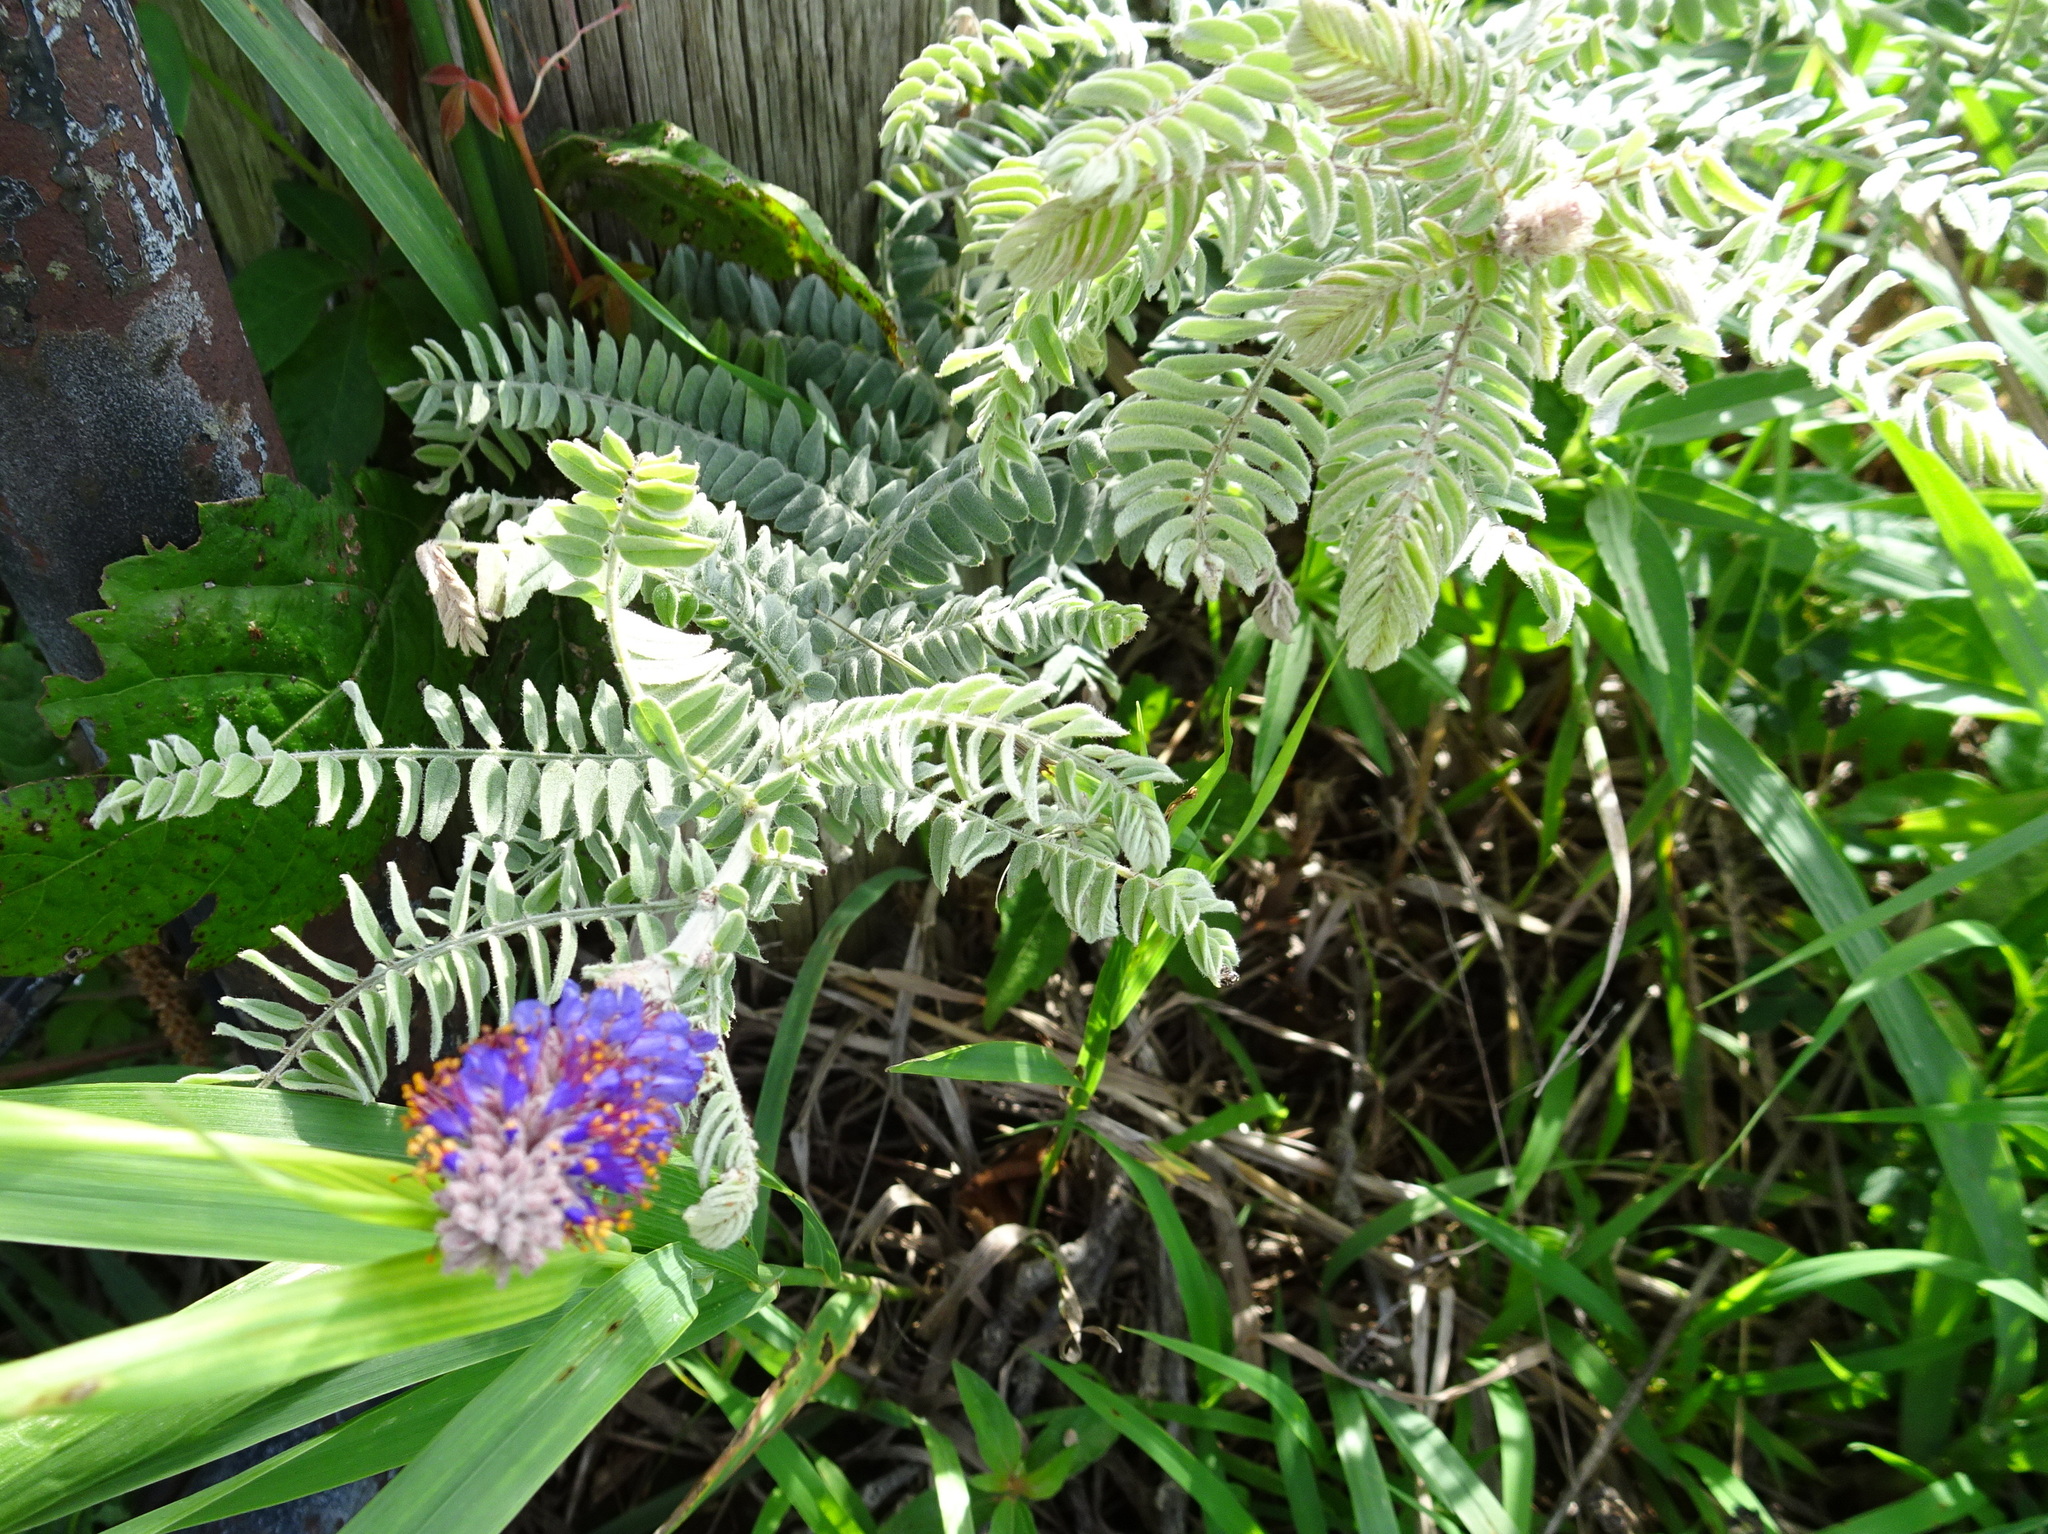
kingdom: Plantae
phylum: Tracheophyta
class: Magnoliopsida
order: Fabales
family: Fabaceae
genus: Amorpha
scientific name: Amorpha canescens
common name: Leadplant
